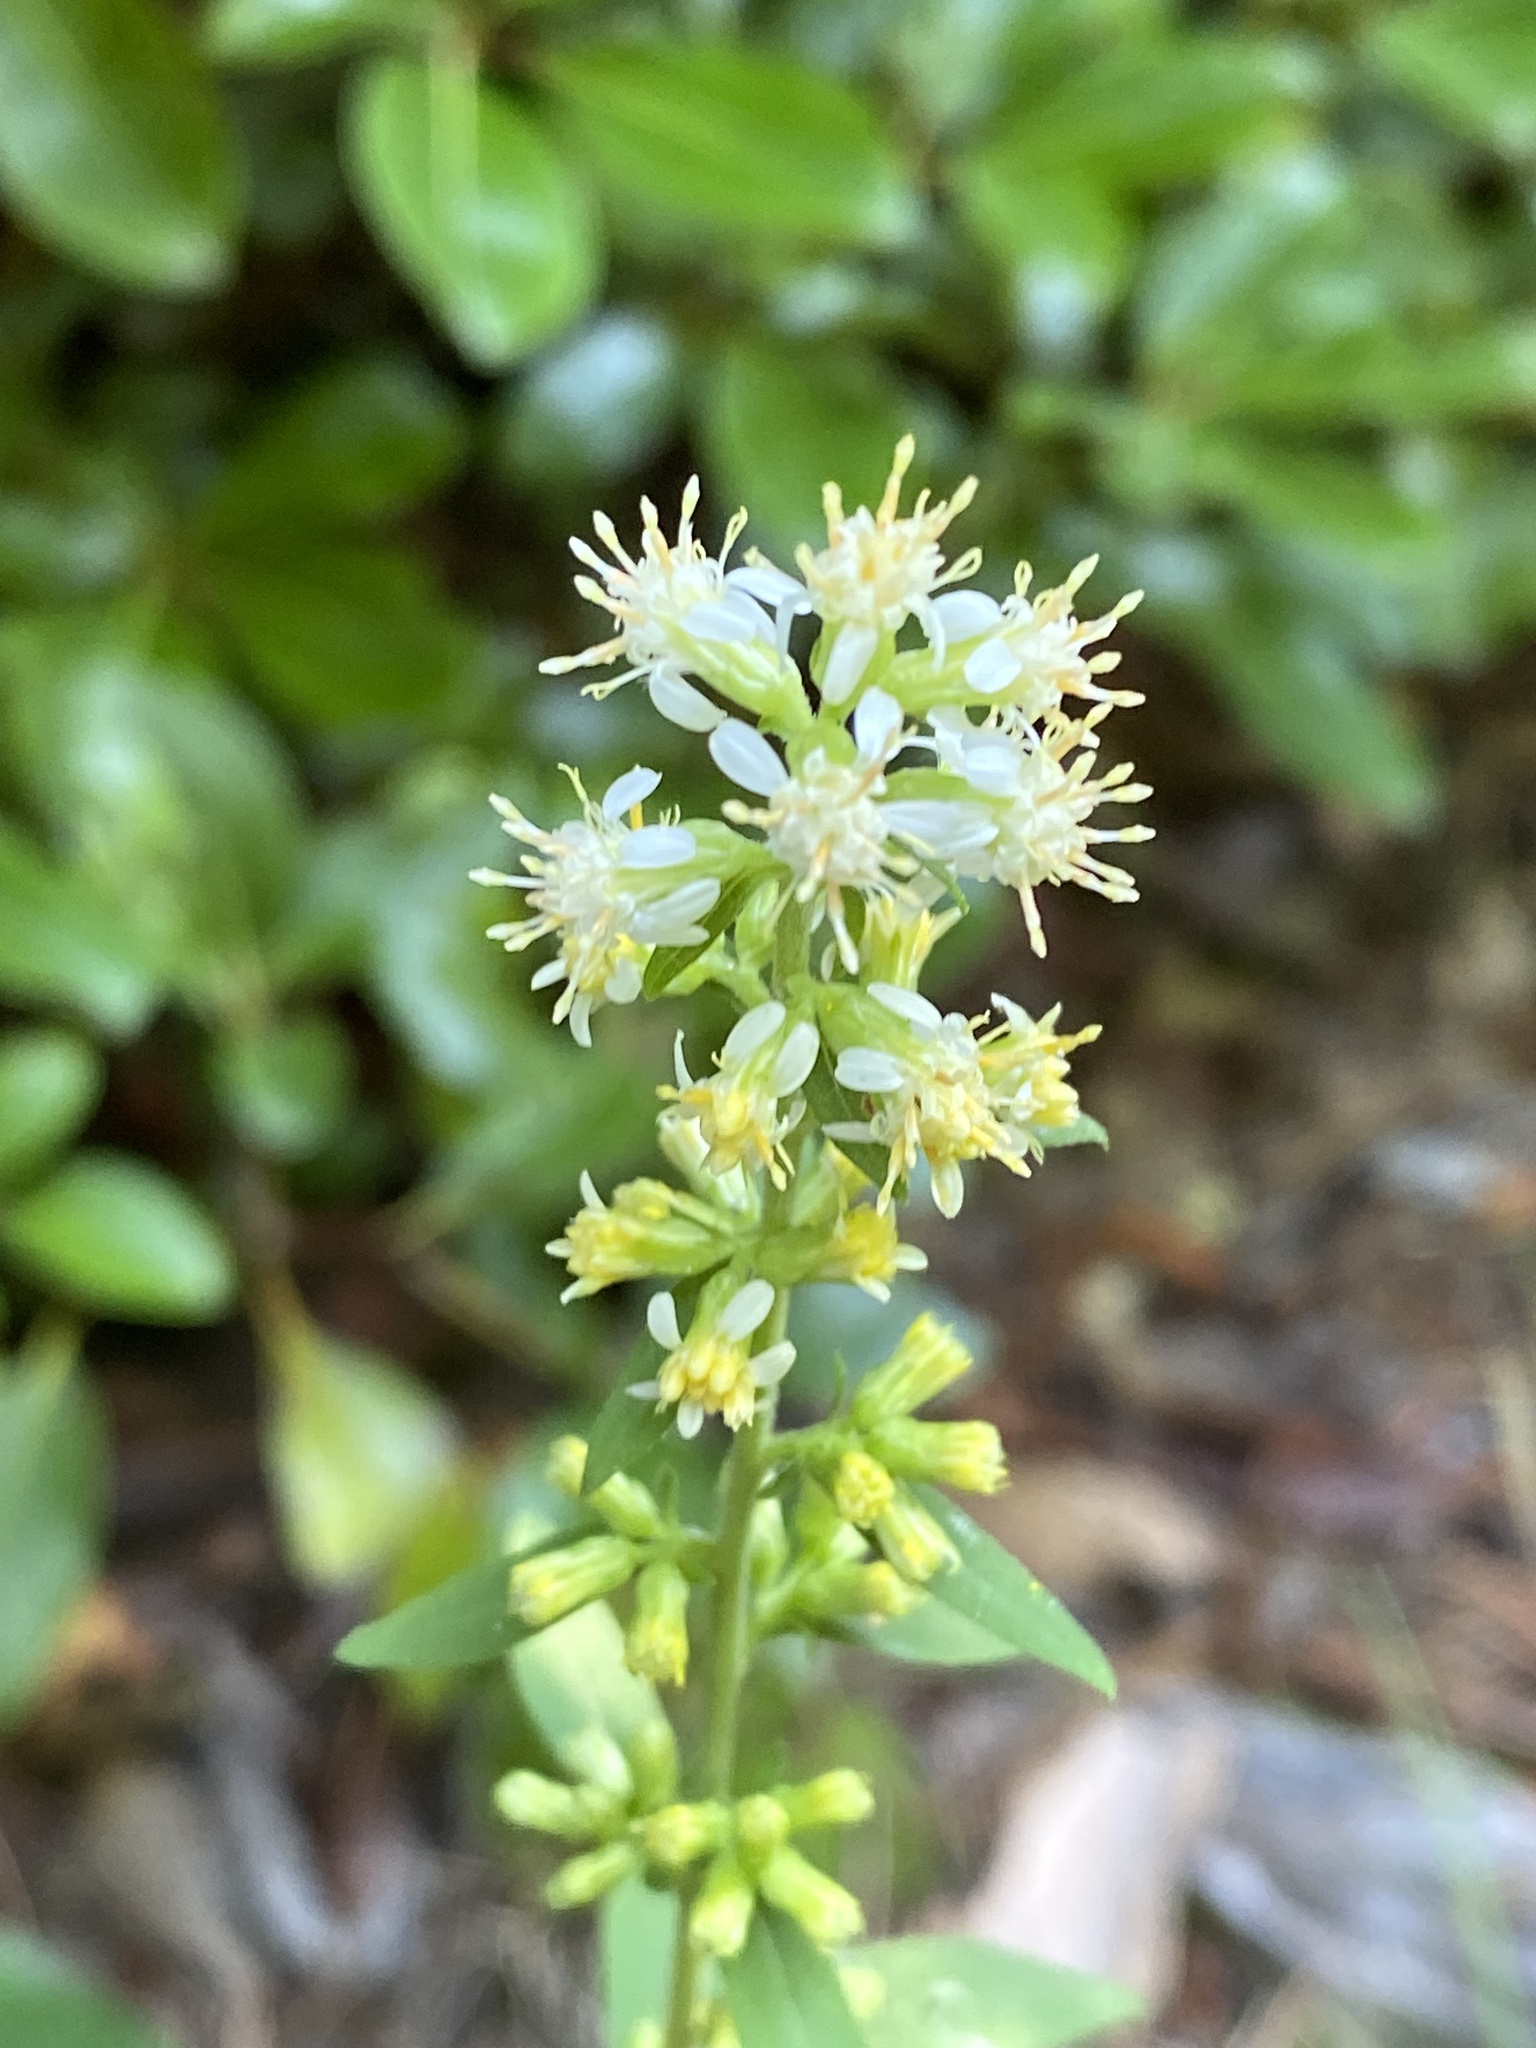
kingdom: Plantae
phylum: Tracheophyta
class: Magnoliopsida
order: Asterales
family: Asteraceae
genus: Solidago
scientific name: Solidago bicolor
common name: Silverrod
